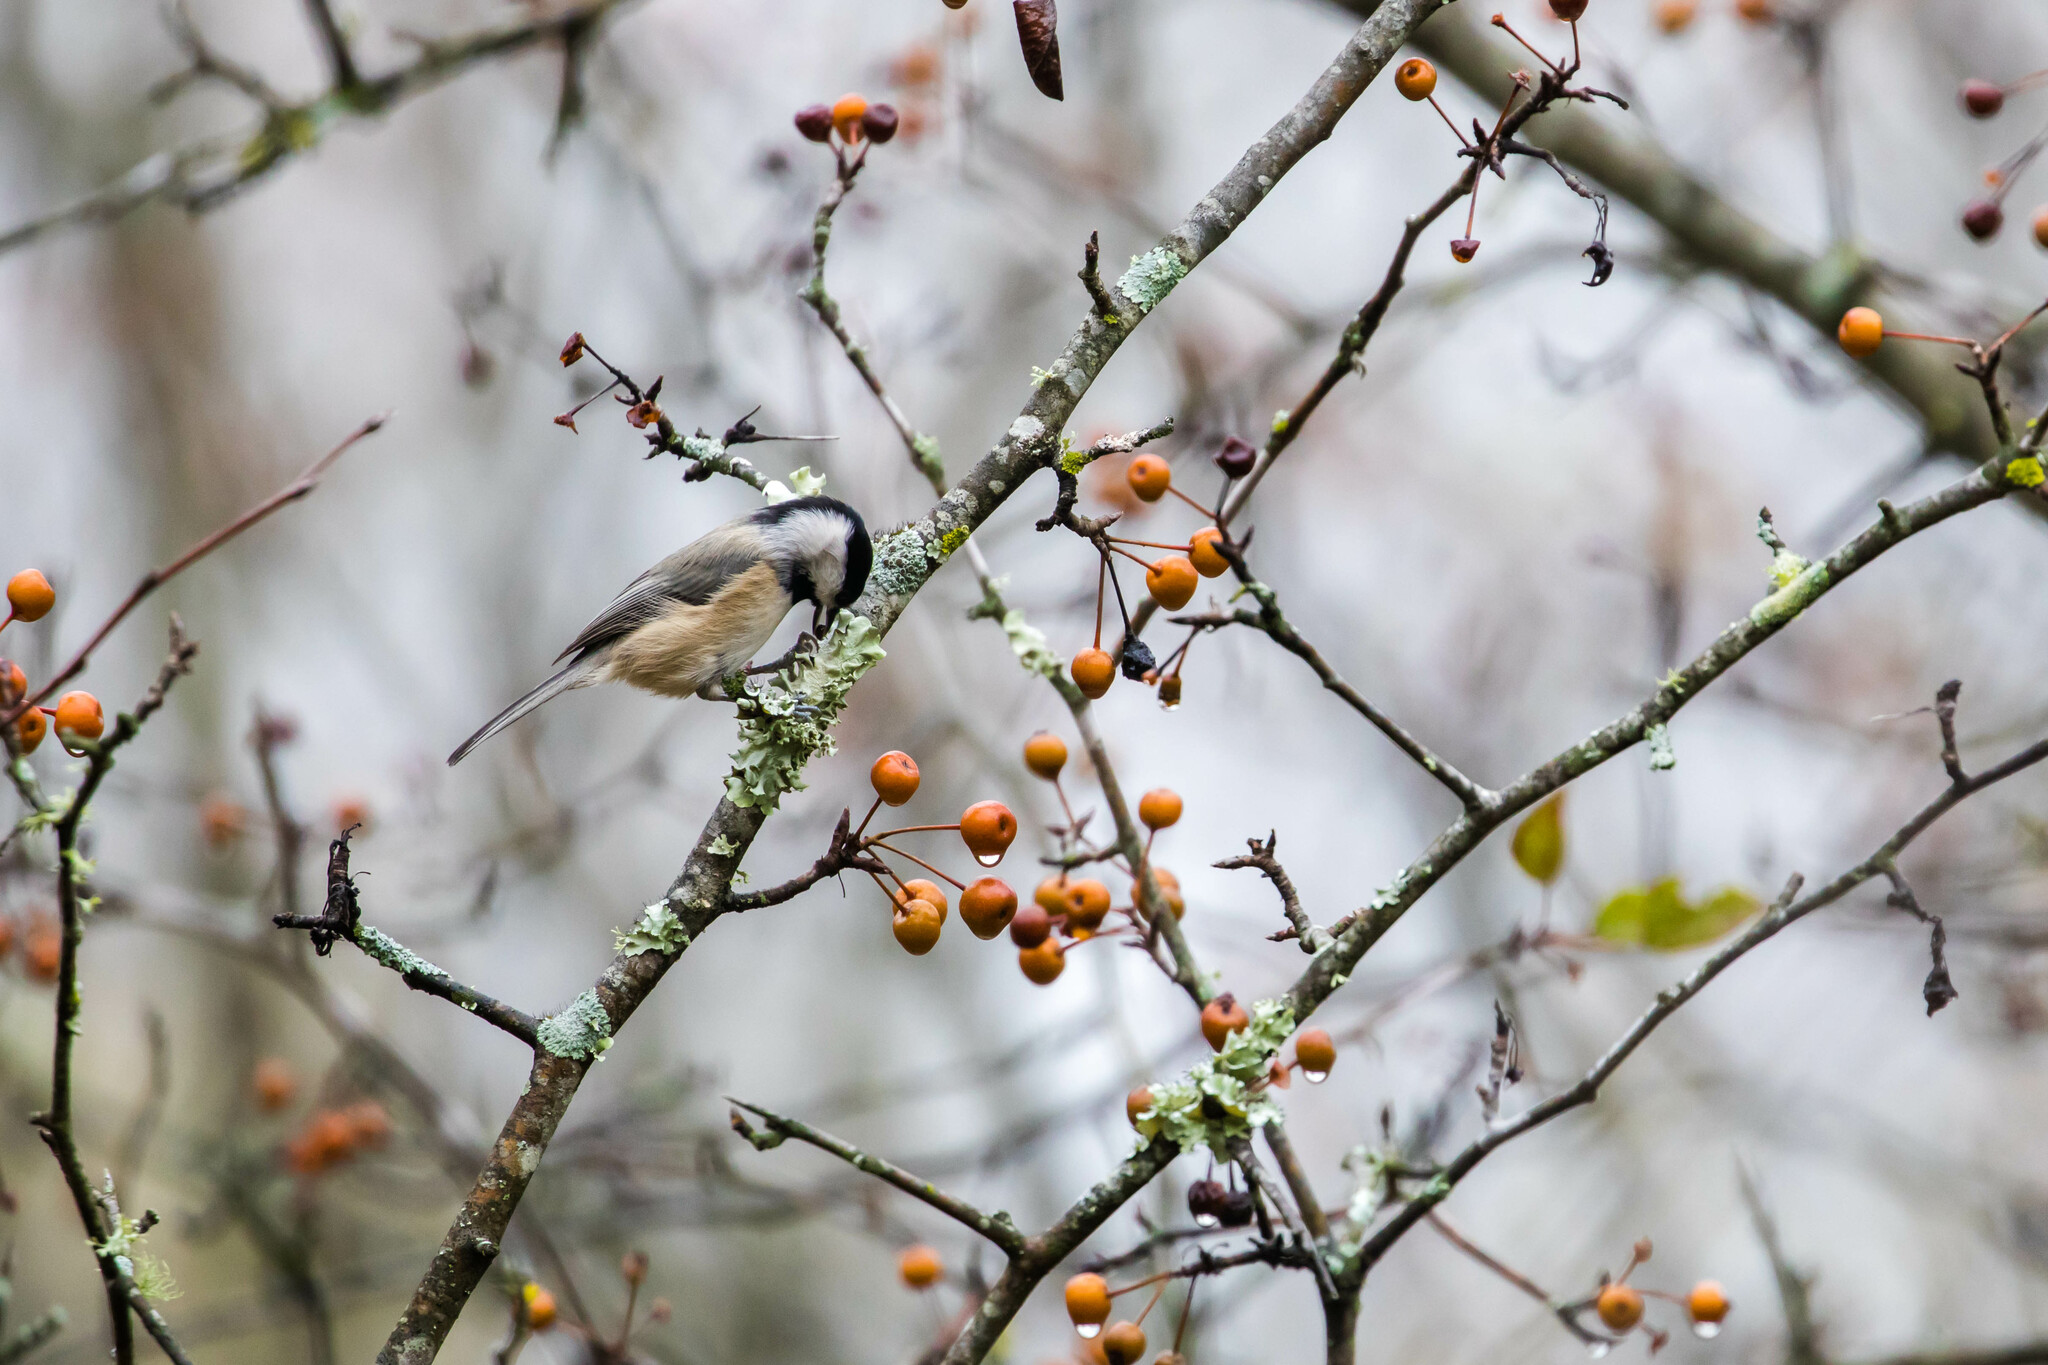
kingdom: Animalia
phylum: Chordata
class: Aves
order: Passeriformes
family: Paridae
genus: Poecile
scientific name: Poecile carolinensis
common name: Carolina chickadee
